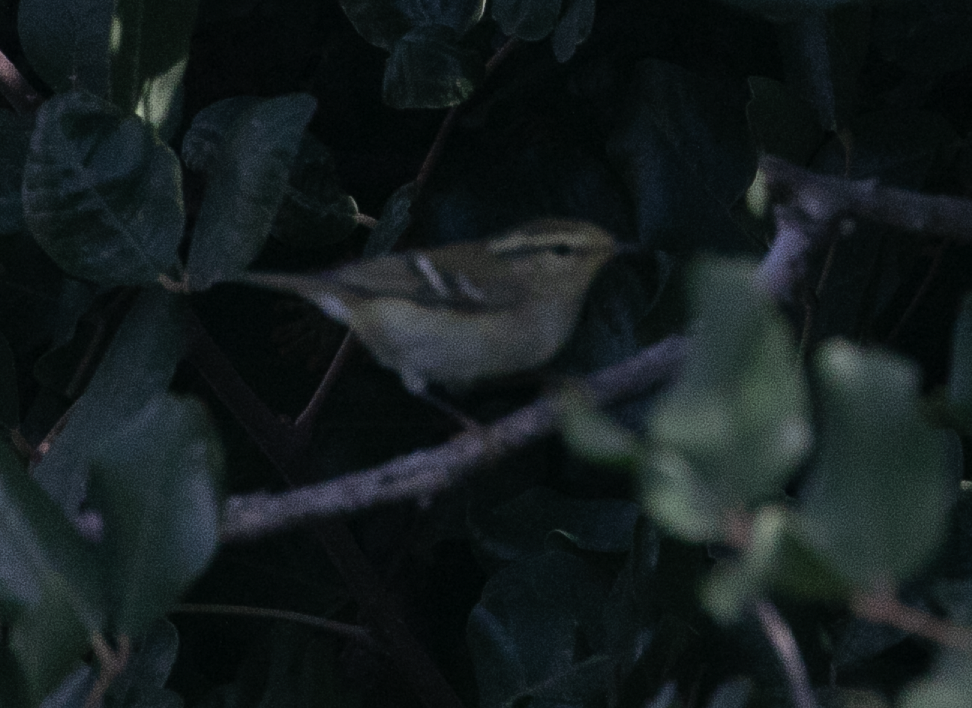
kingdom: Animalia
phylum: Chordata
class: Aves
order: Passeriformes
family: Phylloscopidae
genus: Phylloscopus
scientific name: Phylloscopus inornatus
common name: Yellow-browed warbler
